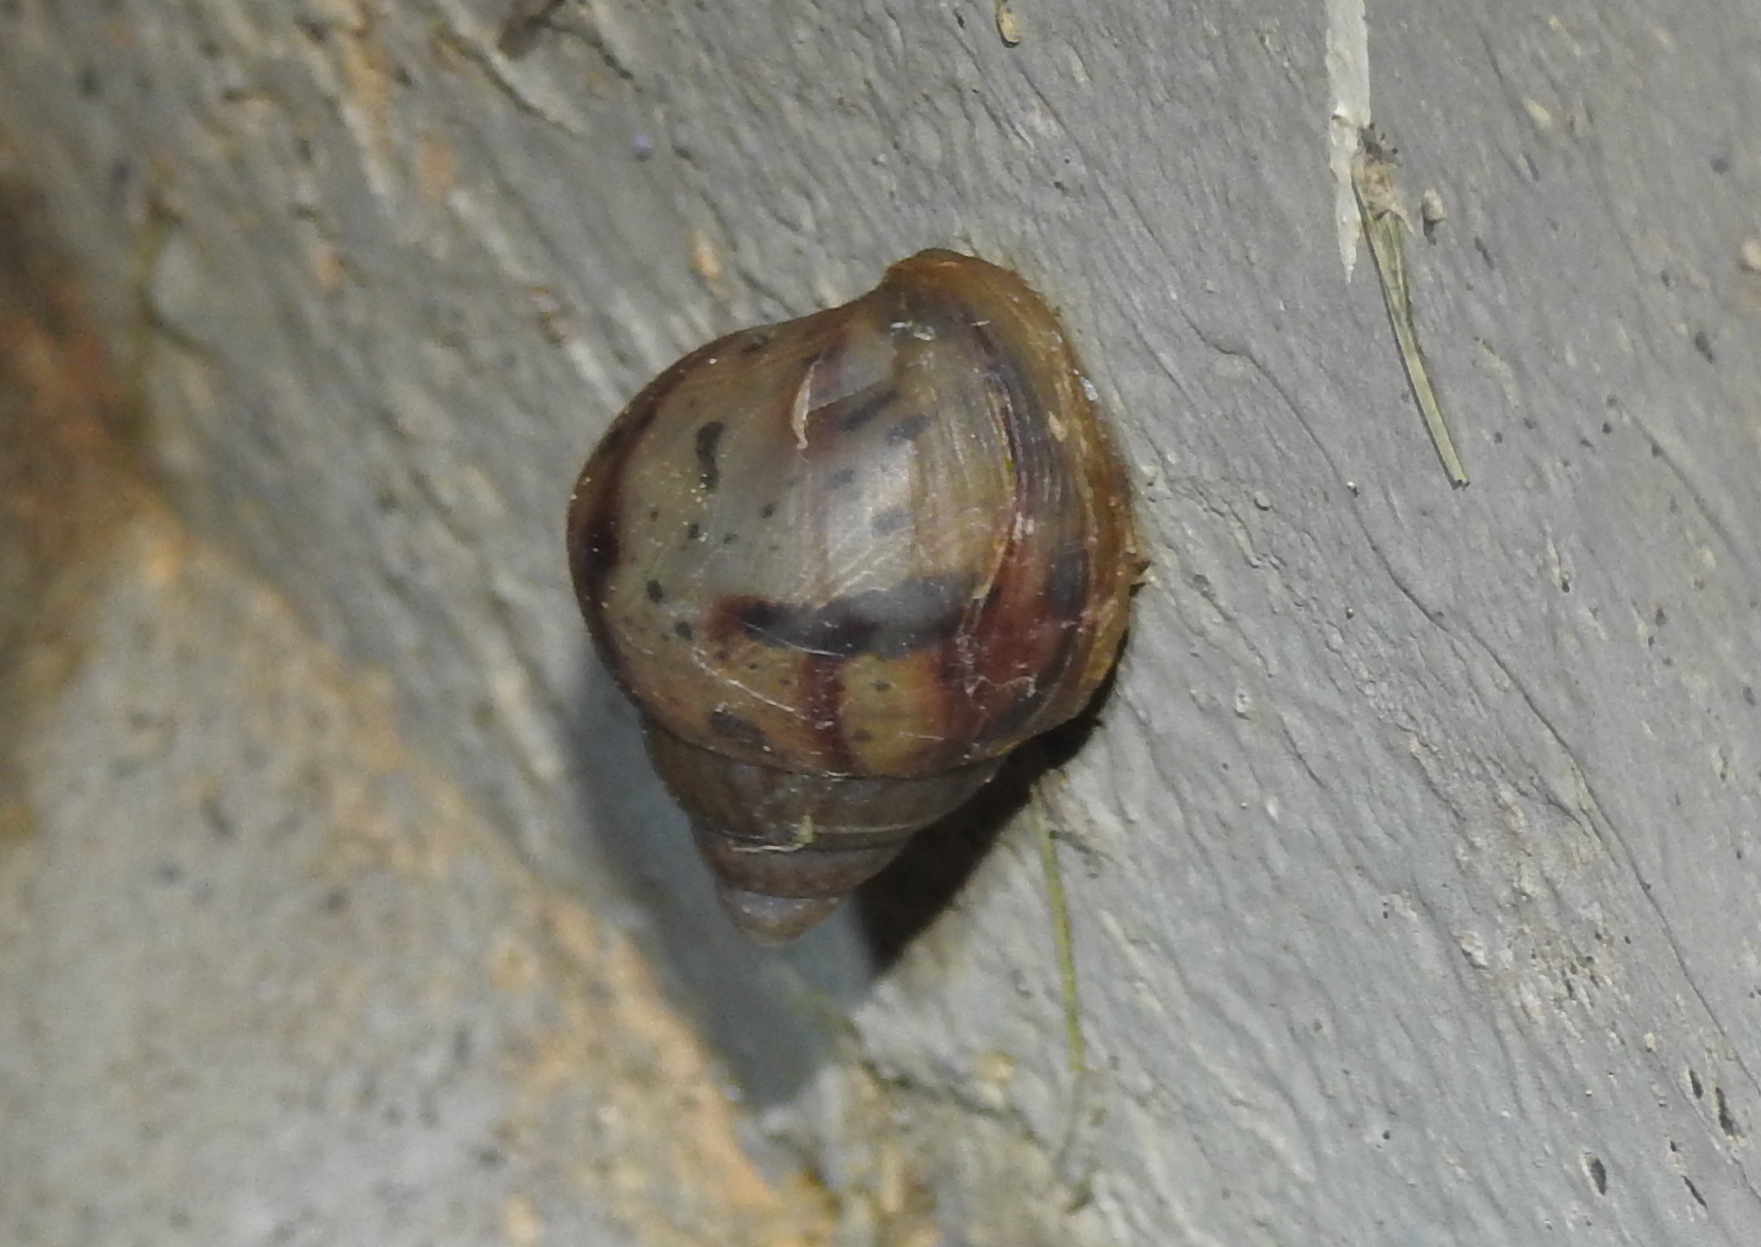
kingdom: Animalia
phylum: Mollusca
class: Gastropoda
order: Stylommatophora
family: Achatinidae
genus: Lissachatina
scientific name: Lissachatina fulica
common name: Giant african snail
